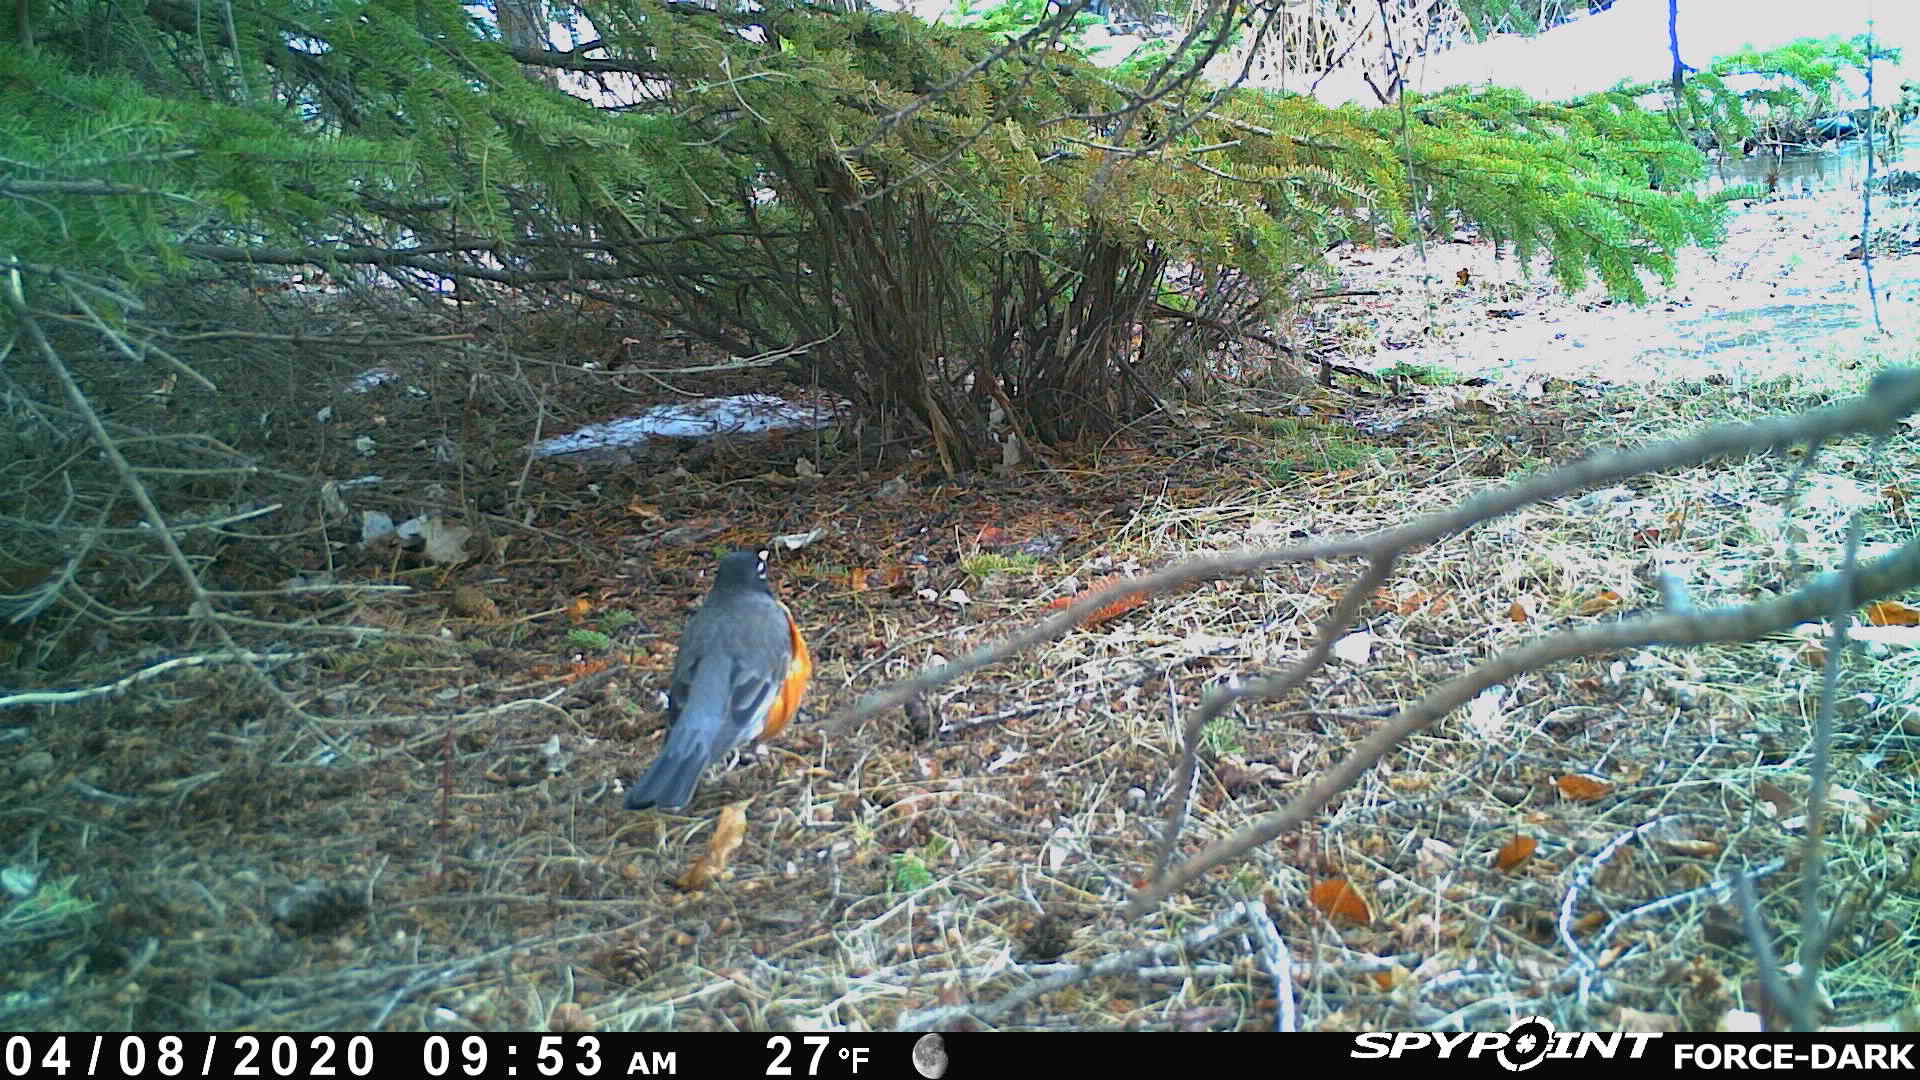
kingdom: Animalia
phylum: Chordata
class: Aves
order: Passeriformes
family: Turdidae
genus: Turdus
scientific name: Turdus migratorius
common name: American robin
